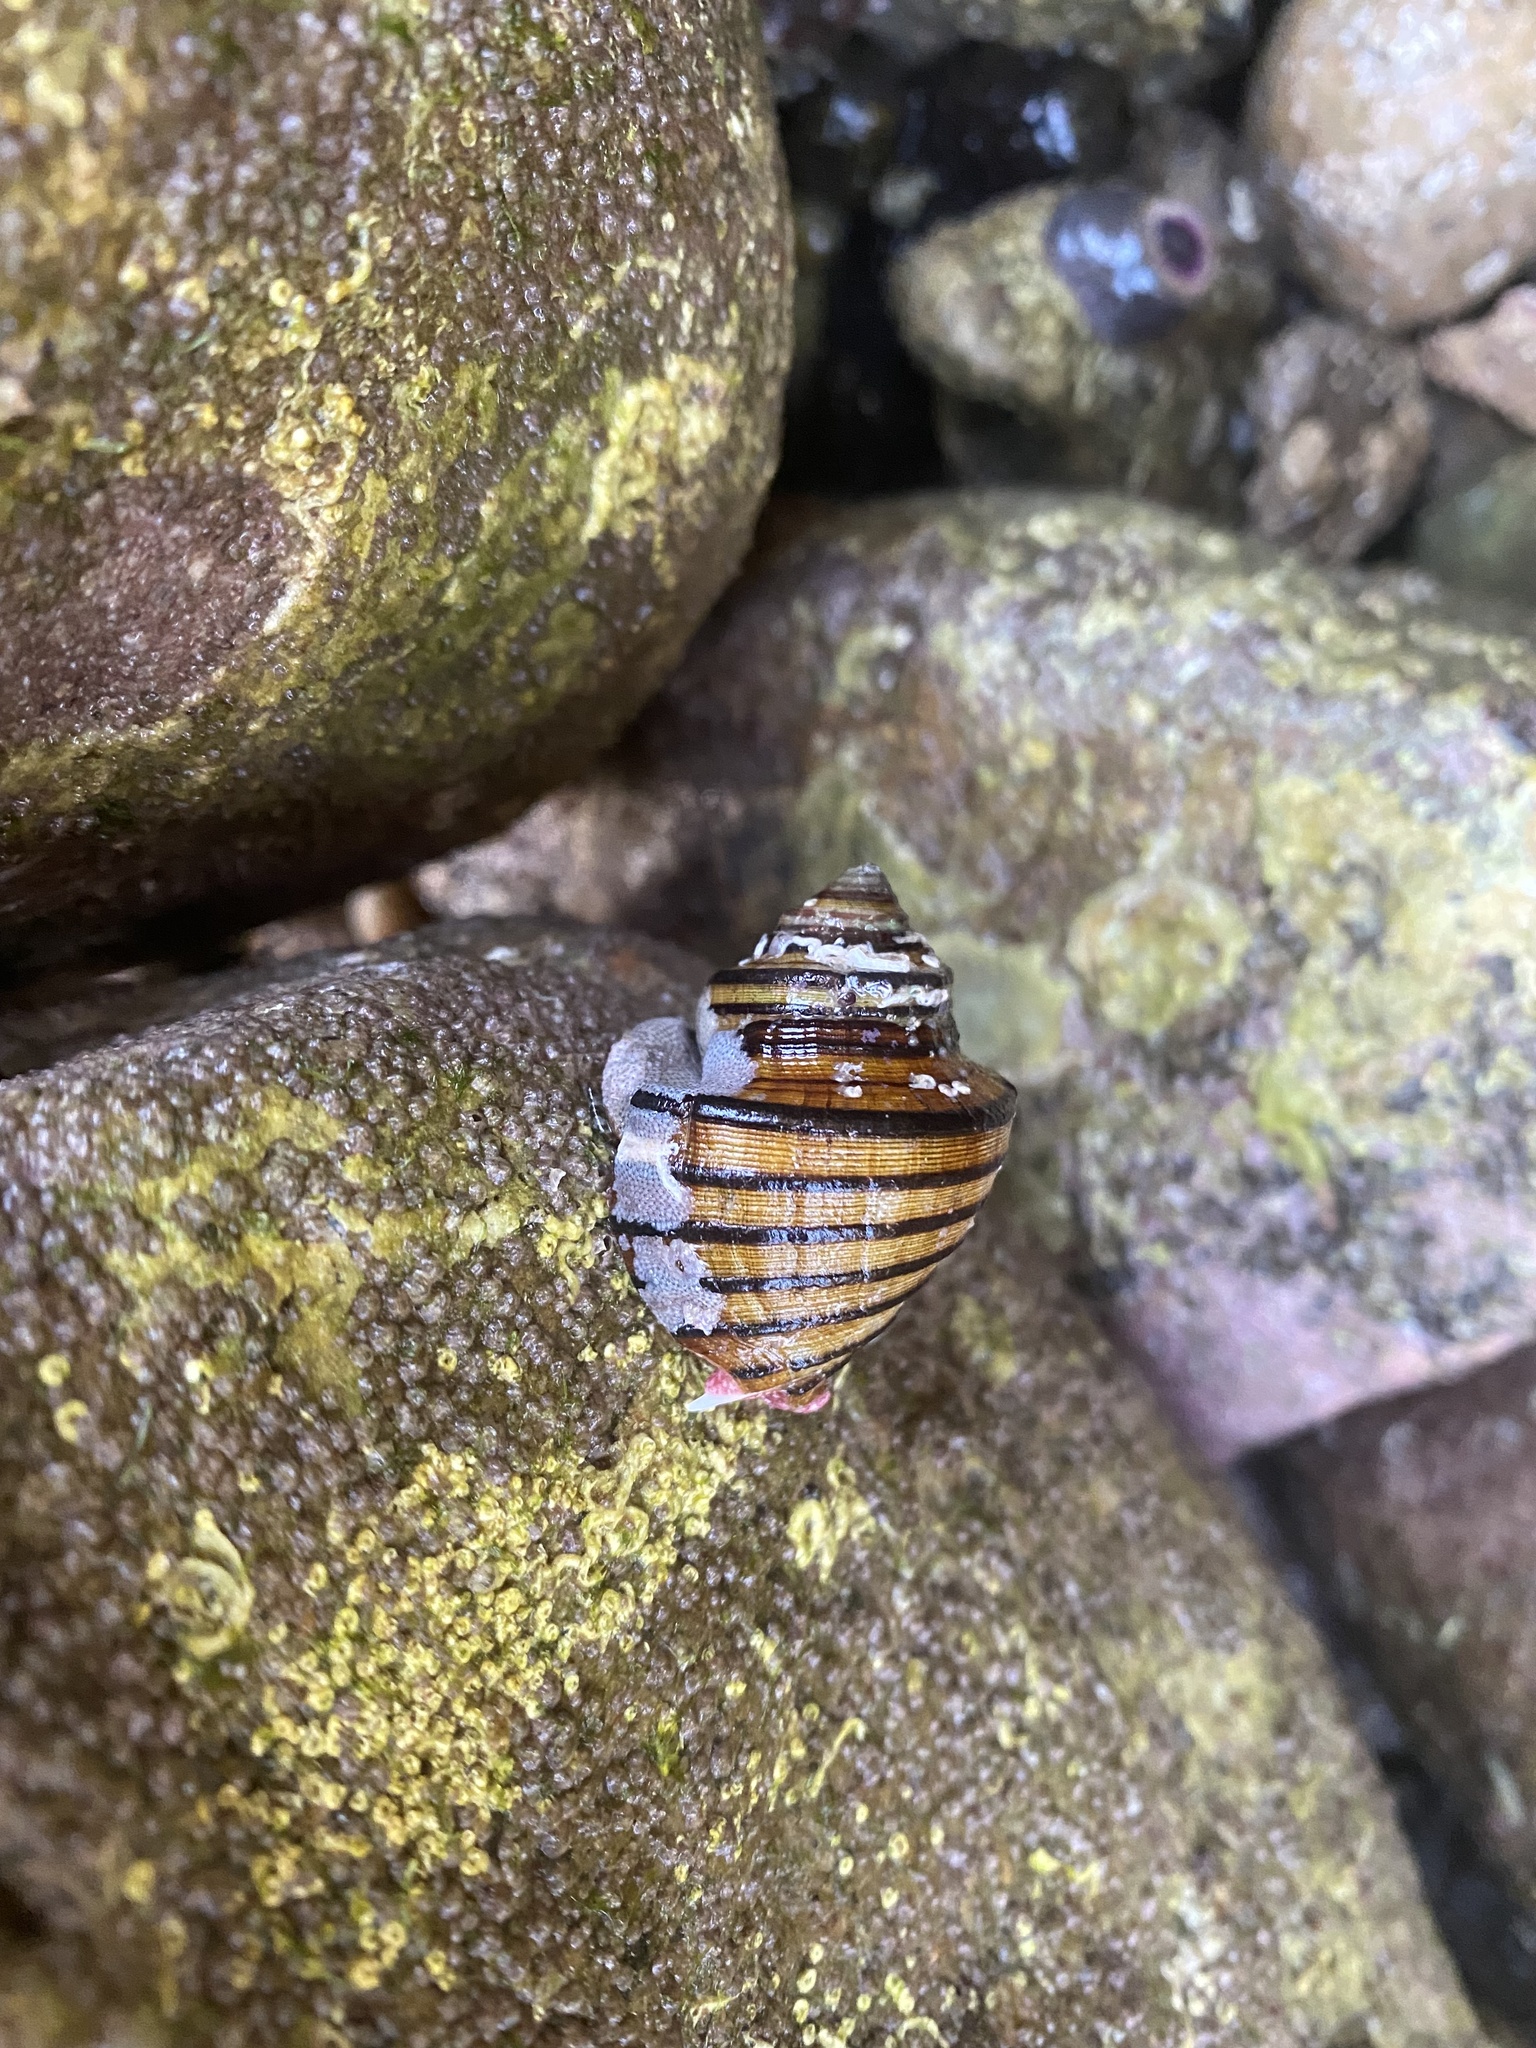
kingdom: Animalia
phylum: Mollusca
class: Gastropoda
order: Neogastropoda
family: Fasciolariidae
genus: Opeatostoma
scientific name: Opeatostoma pseudodon
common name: Thorn latirus
